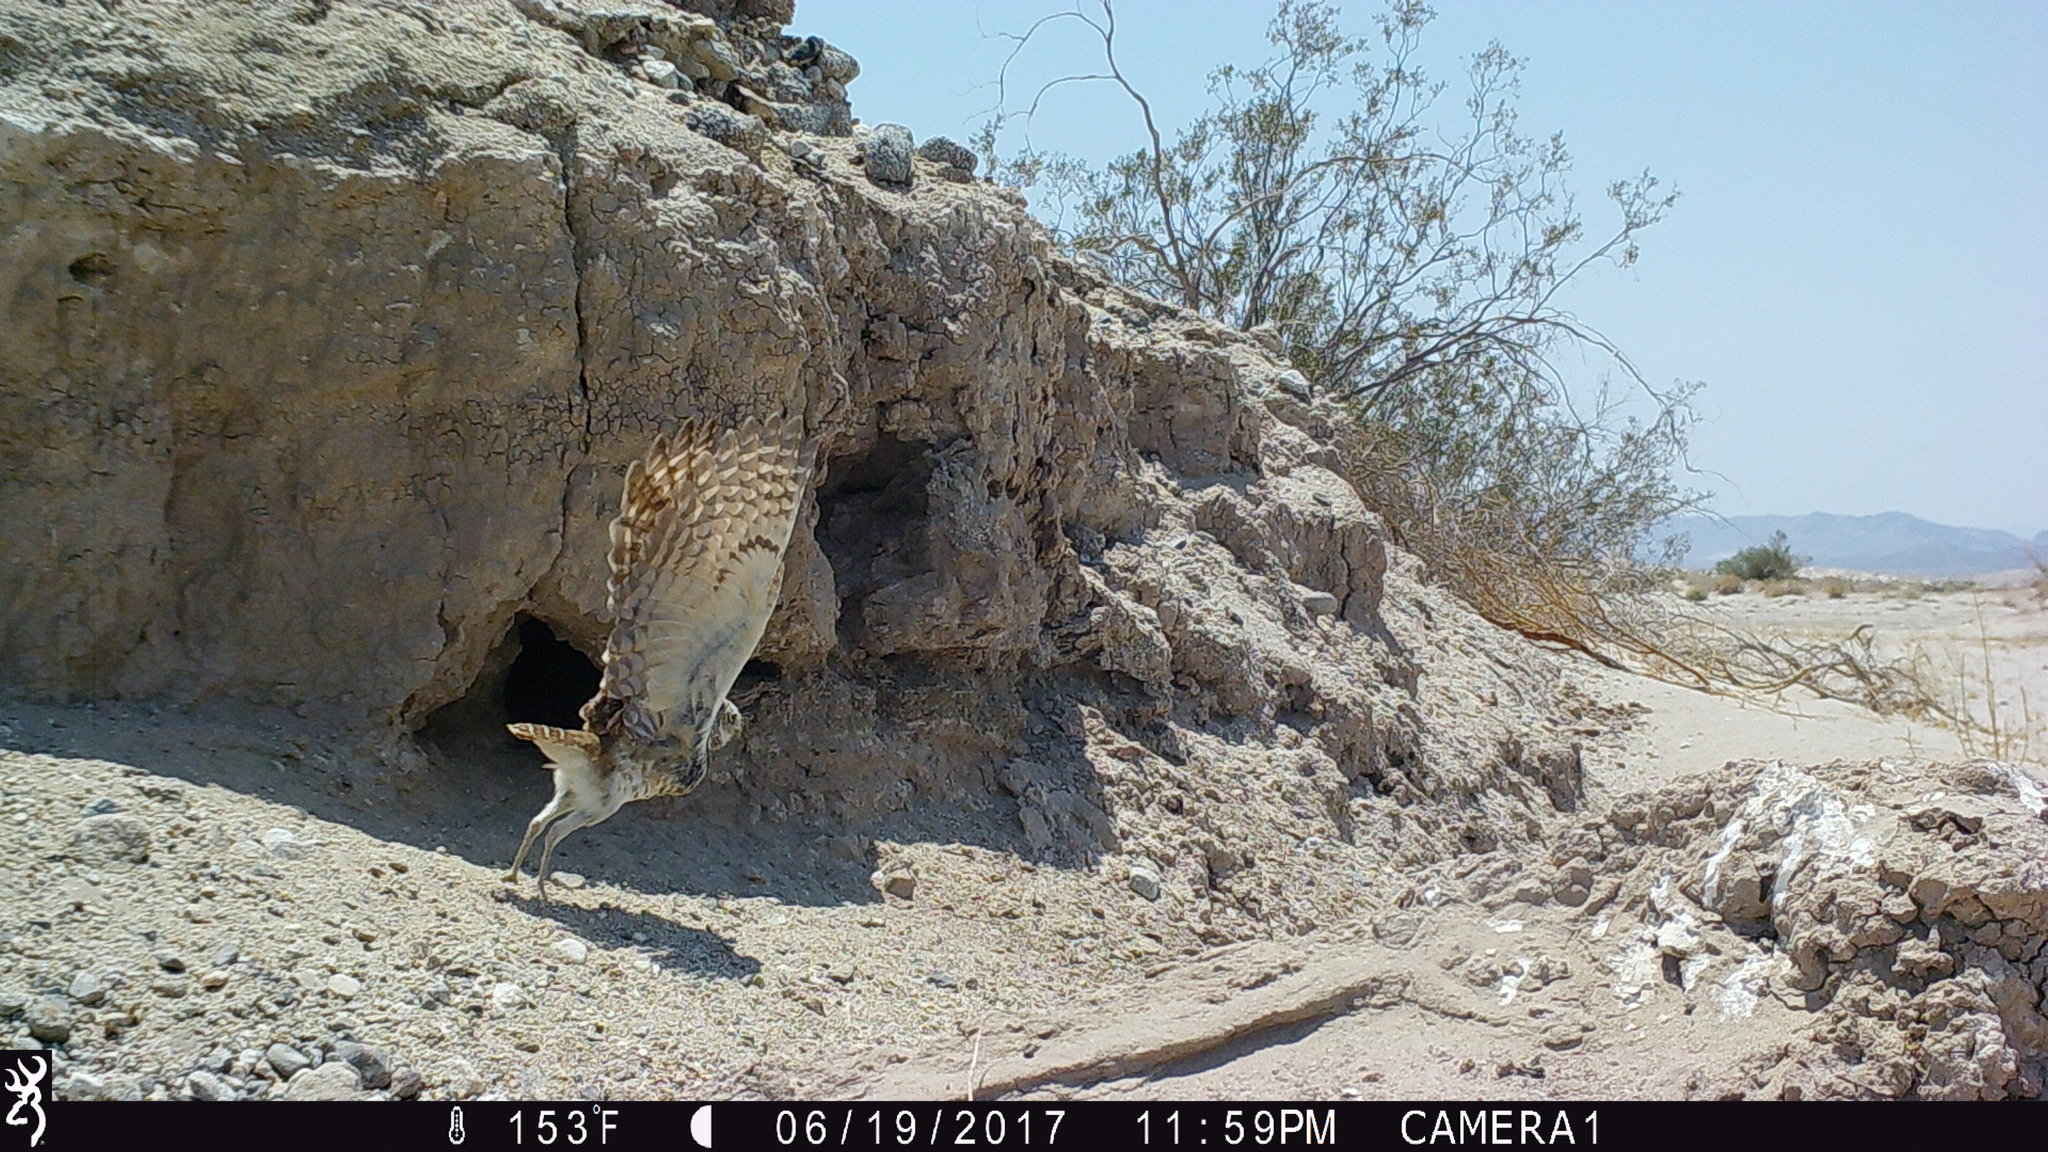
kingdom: Animalia
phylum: Chordata
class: Aves
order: Strigiformes
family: Strigidae
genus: Athene
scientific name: Athene cunicularia
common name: Burrowing owl
